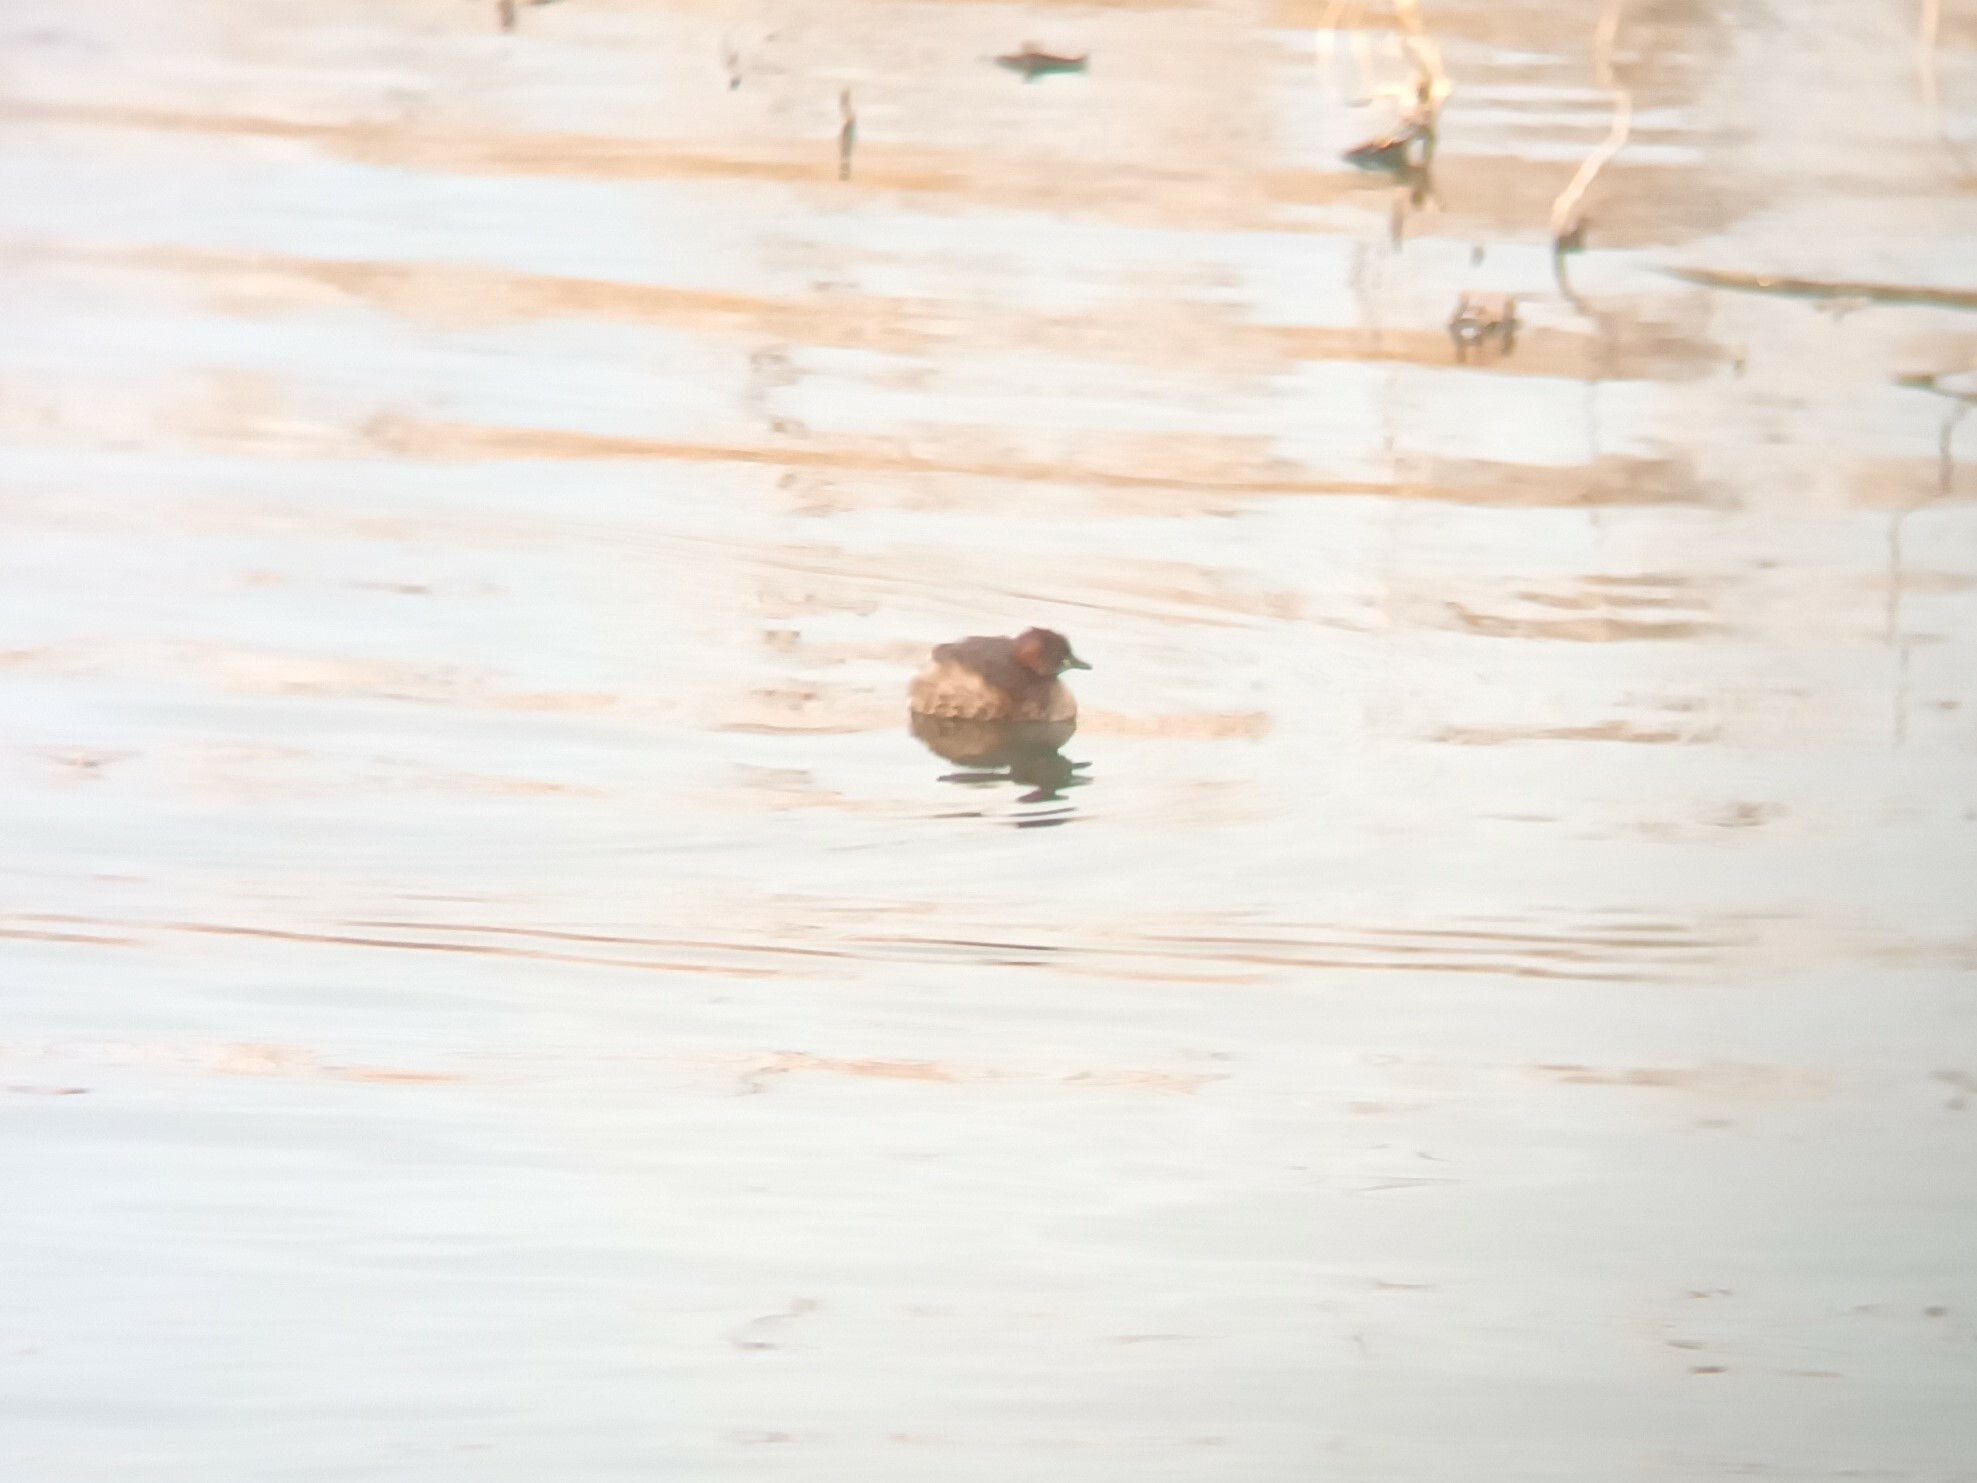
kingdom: Animalia
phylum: Chordata
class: Aves
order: Podicipediformes
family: Podicipedidae
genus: Tachybaptus
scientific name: Tachybaptus ruficollis
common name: Little grebe
